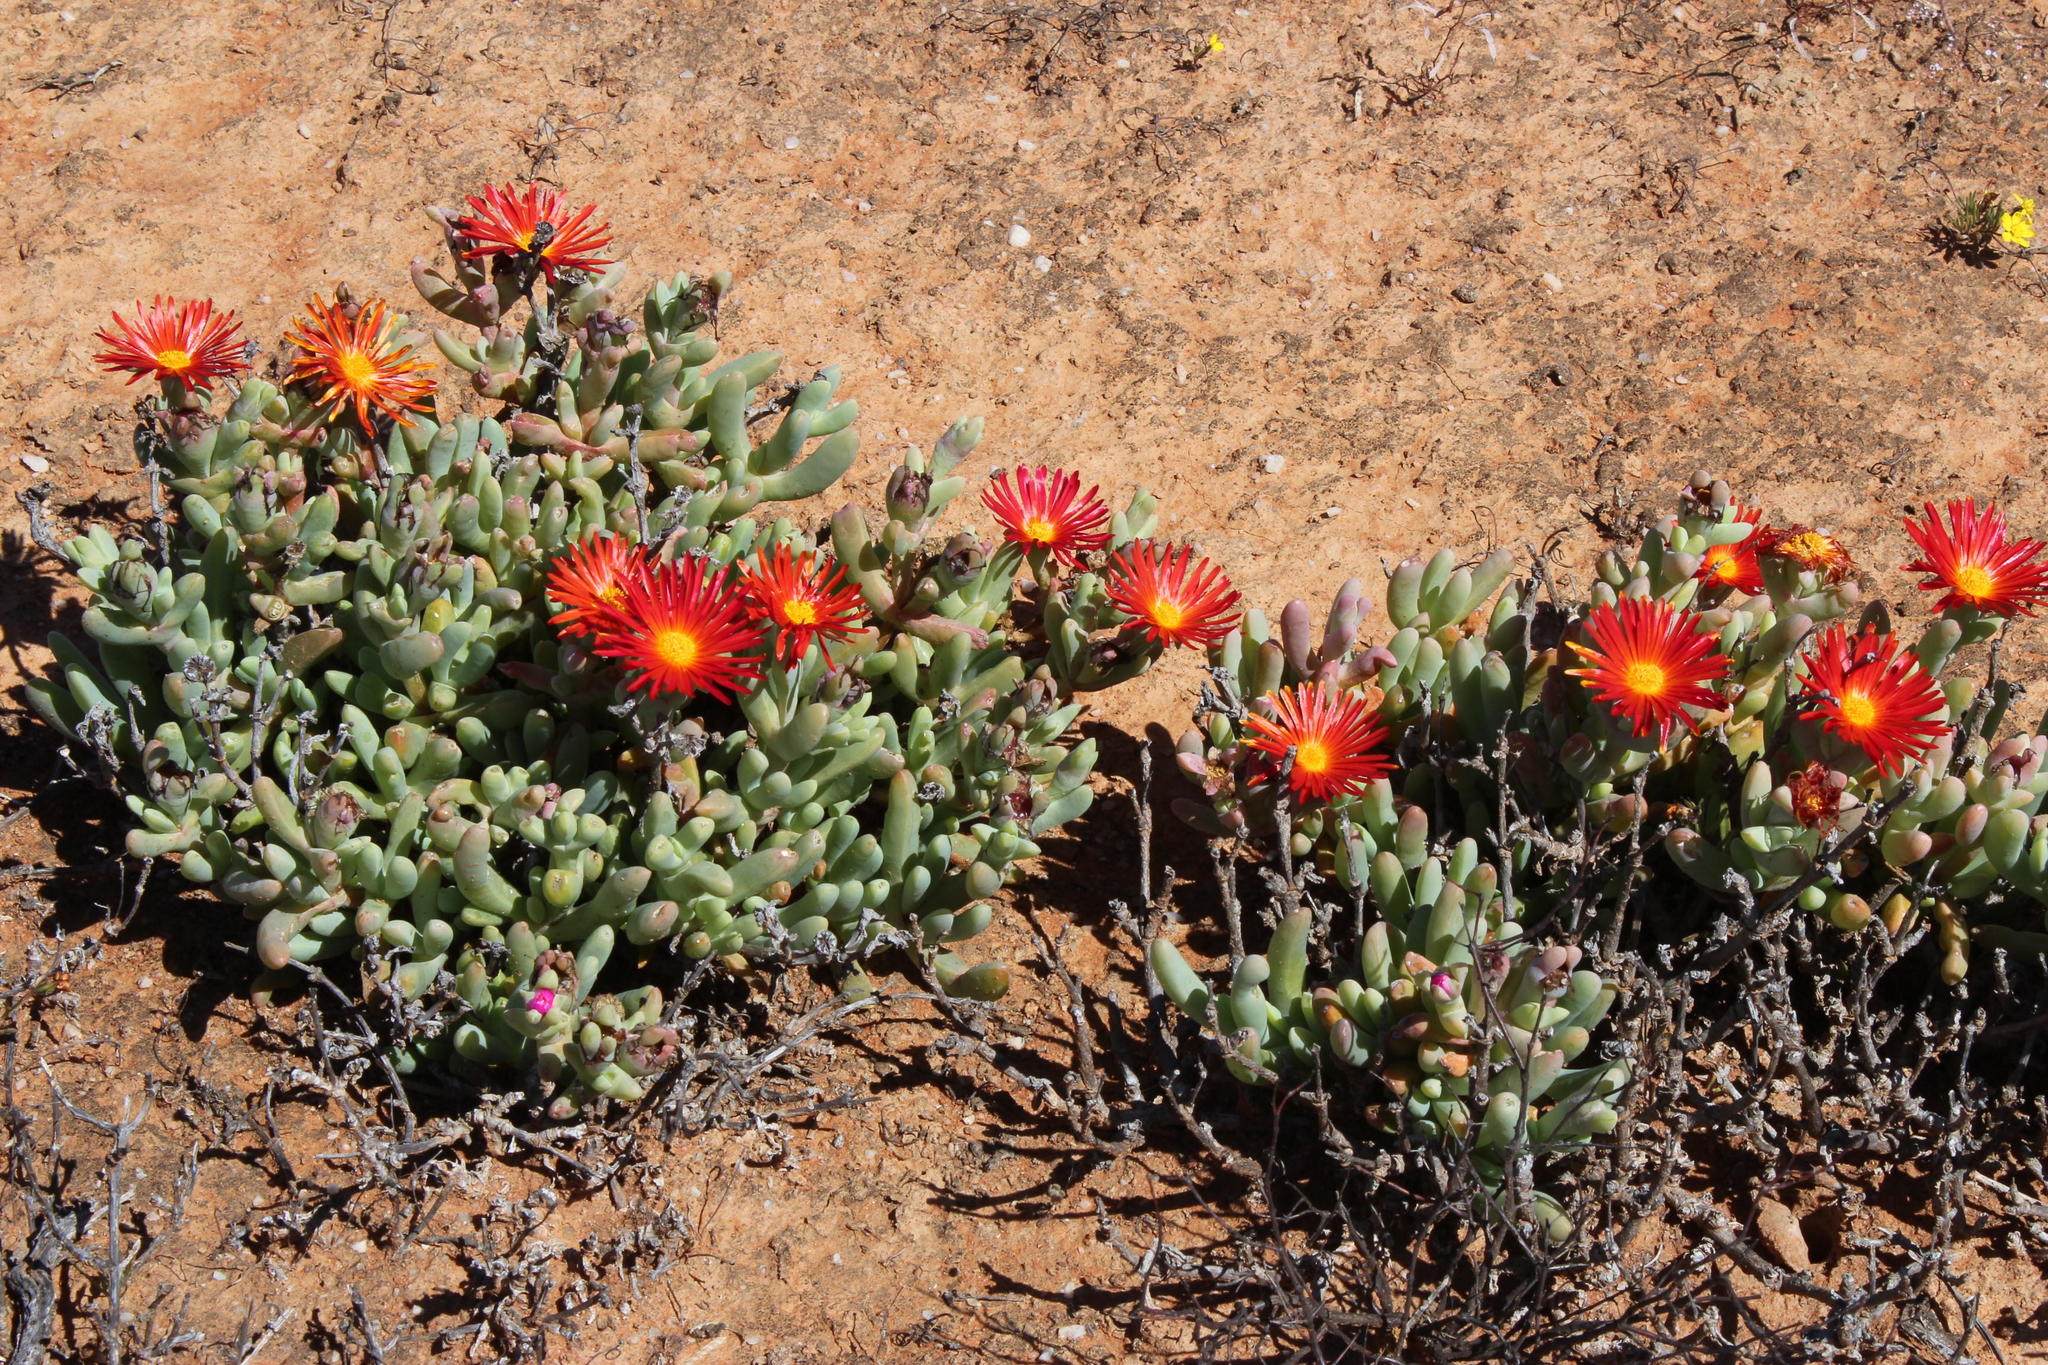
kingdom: Plantae
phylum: Tracheophyta
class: Magnoliopsida
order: Caryophyllales
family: Aizoaceae
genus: Malephora
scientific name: Malephora purpureocrocea
